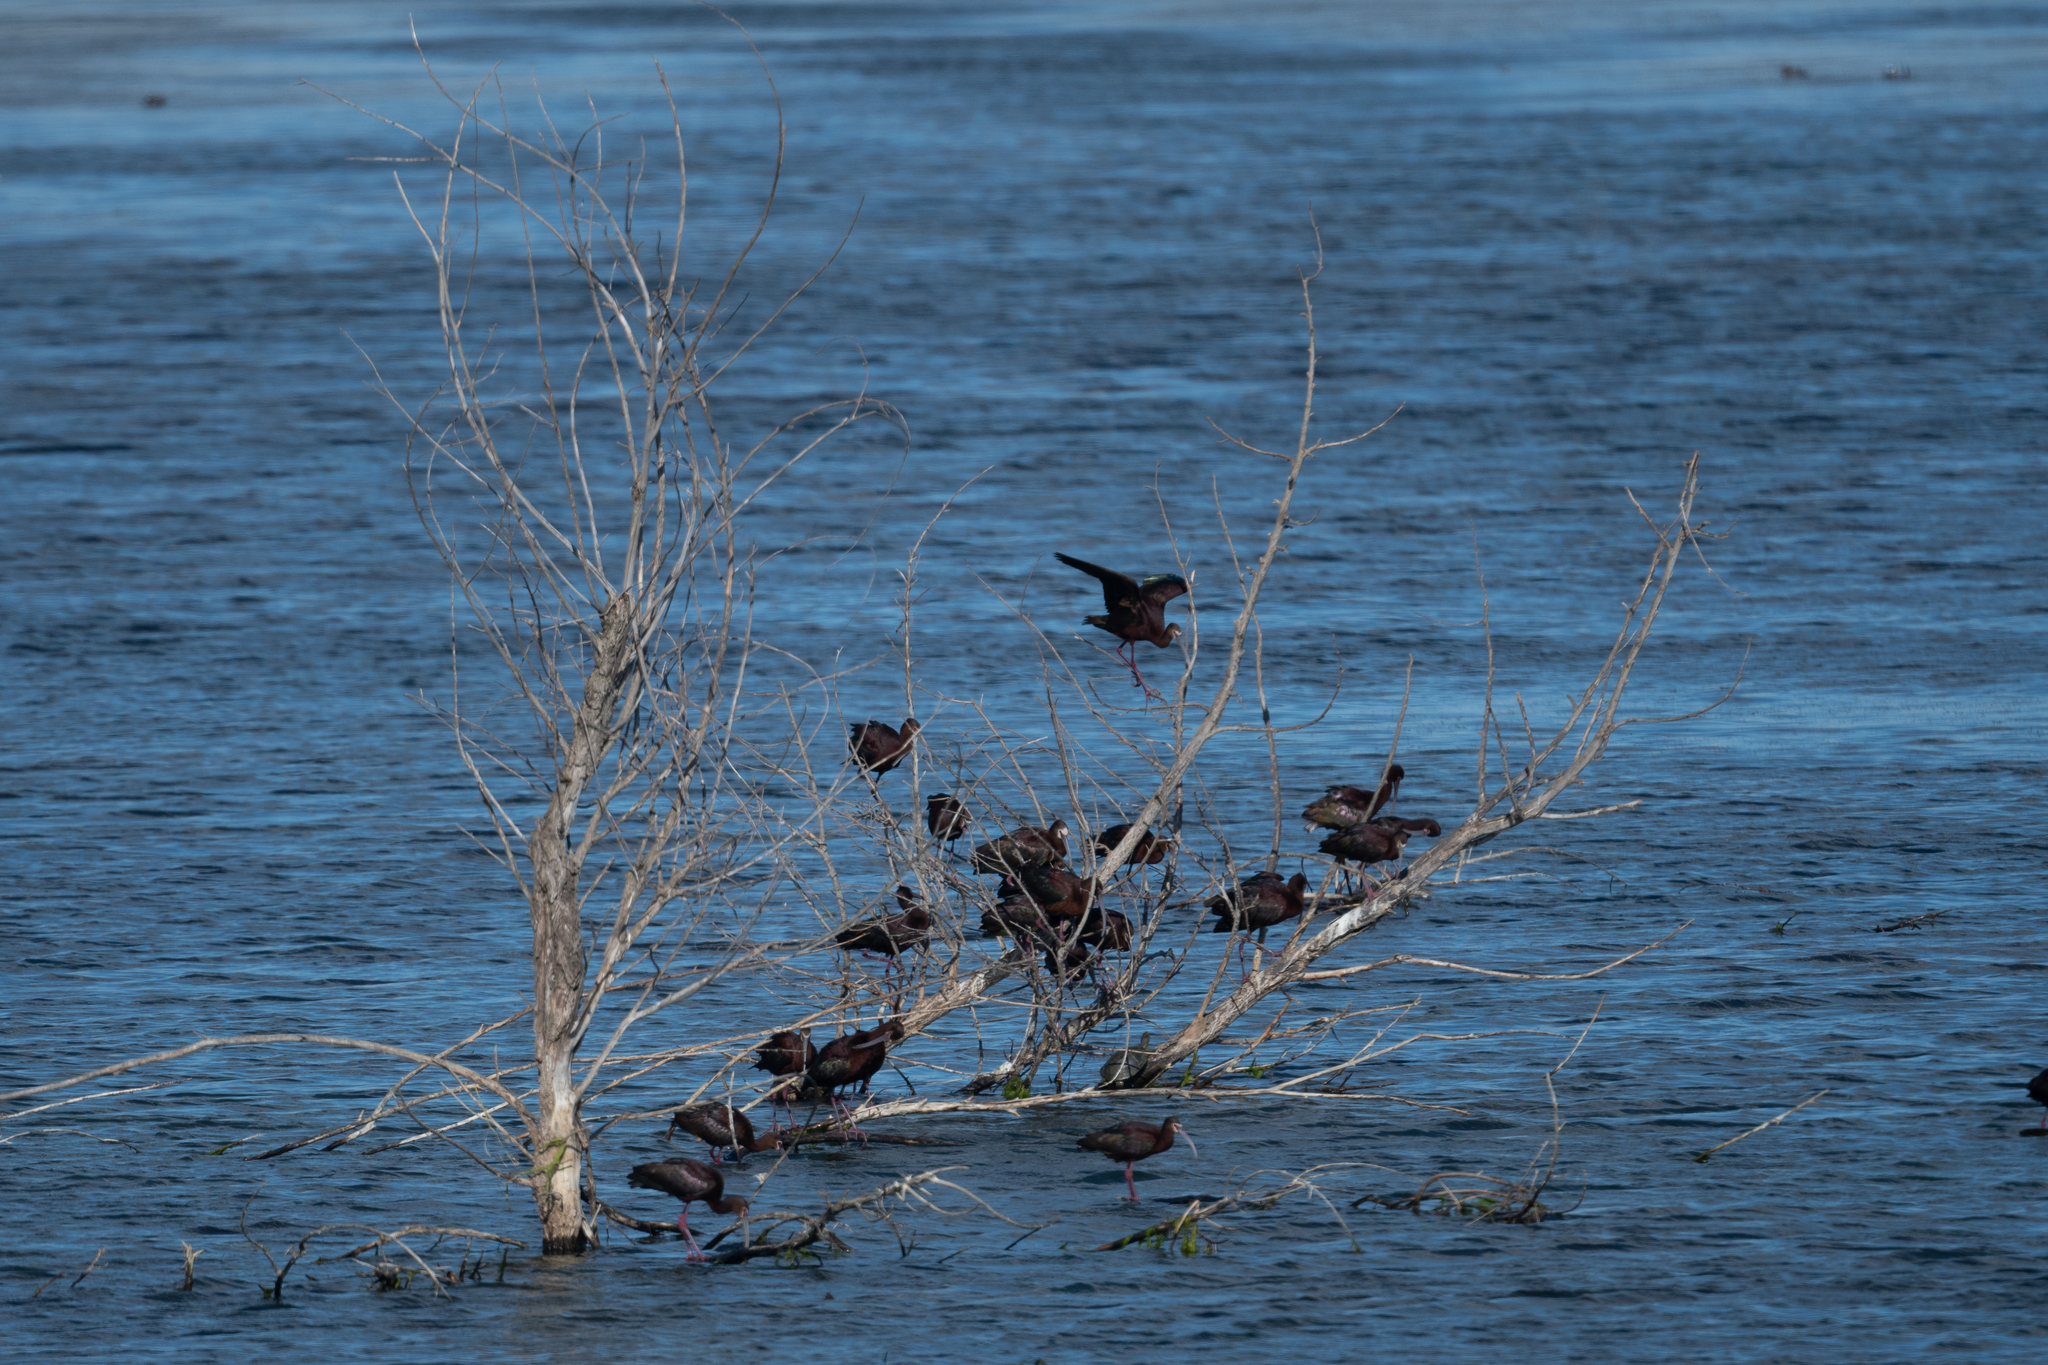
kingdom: Animalia
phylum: Chordata
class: Aves
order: Pelecaniformes
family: Threskiornithidae
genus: Plegadis
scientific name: Plegadis chihi
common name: White-faced ibis
